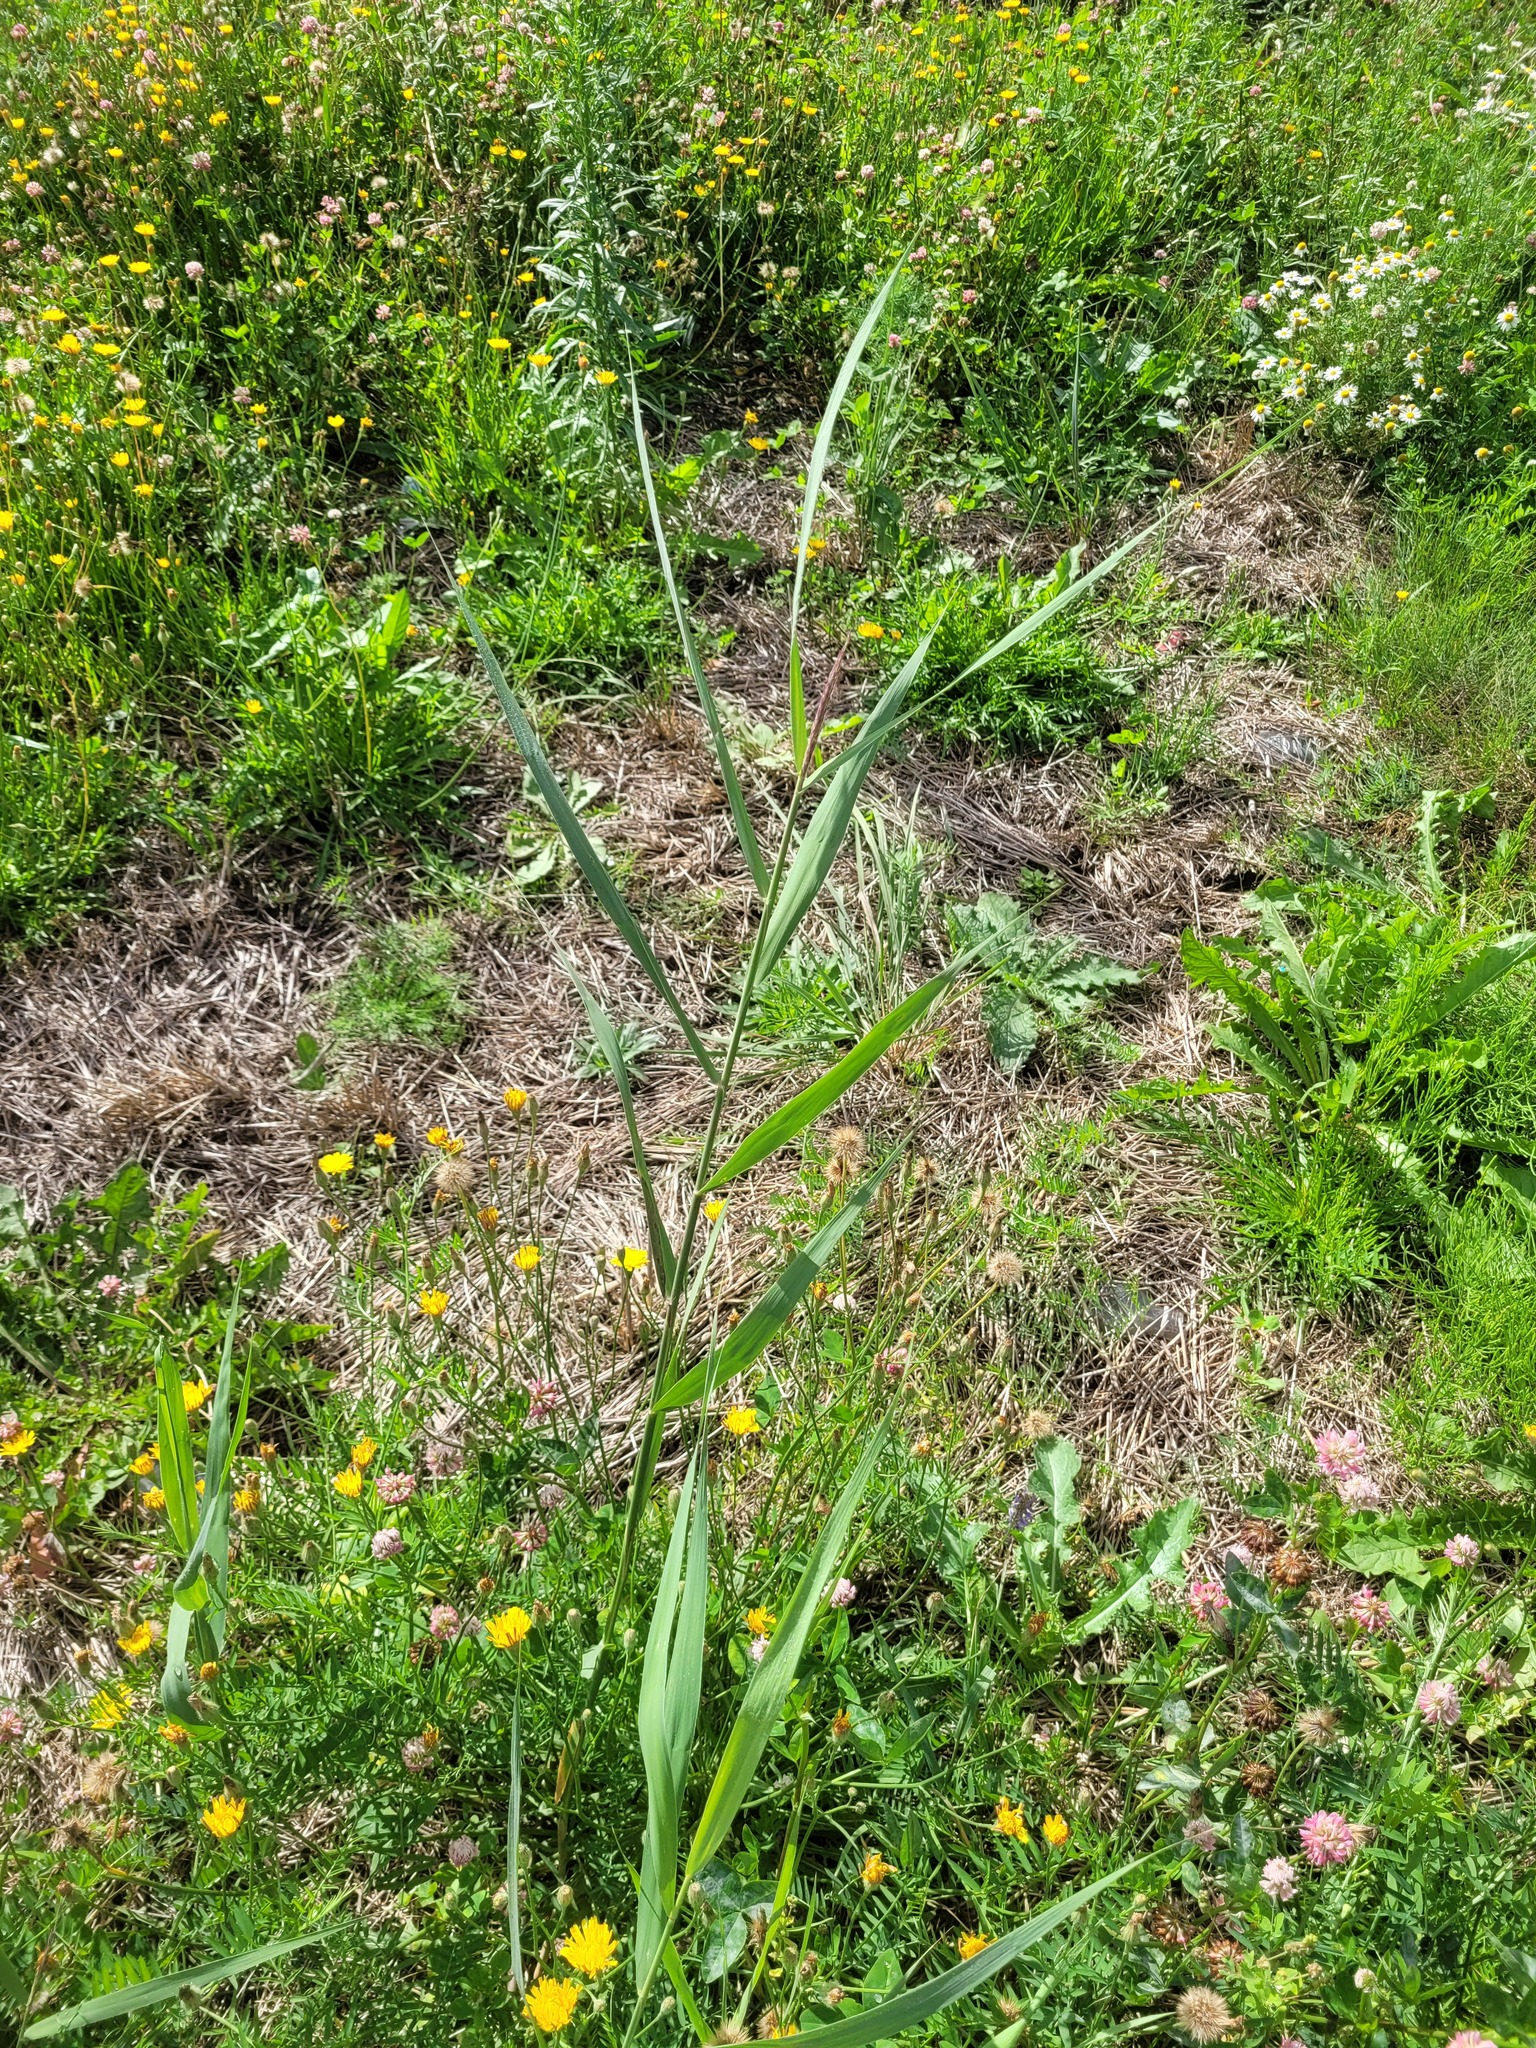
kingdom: Plantae
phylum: Tracheophyta
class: Liliopsida
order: Poales
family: Poaceae
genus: Phragmites
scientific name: Phragmites australis
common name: Common reed
